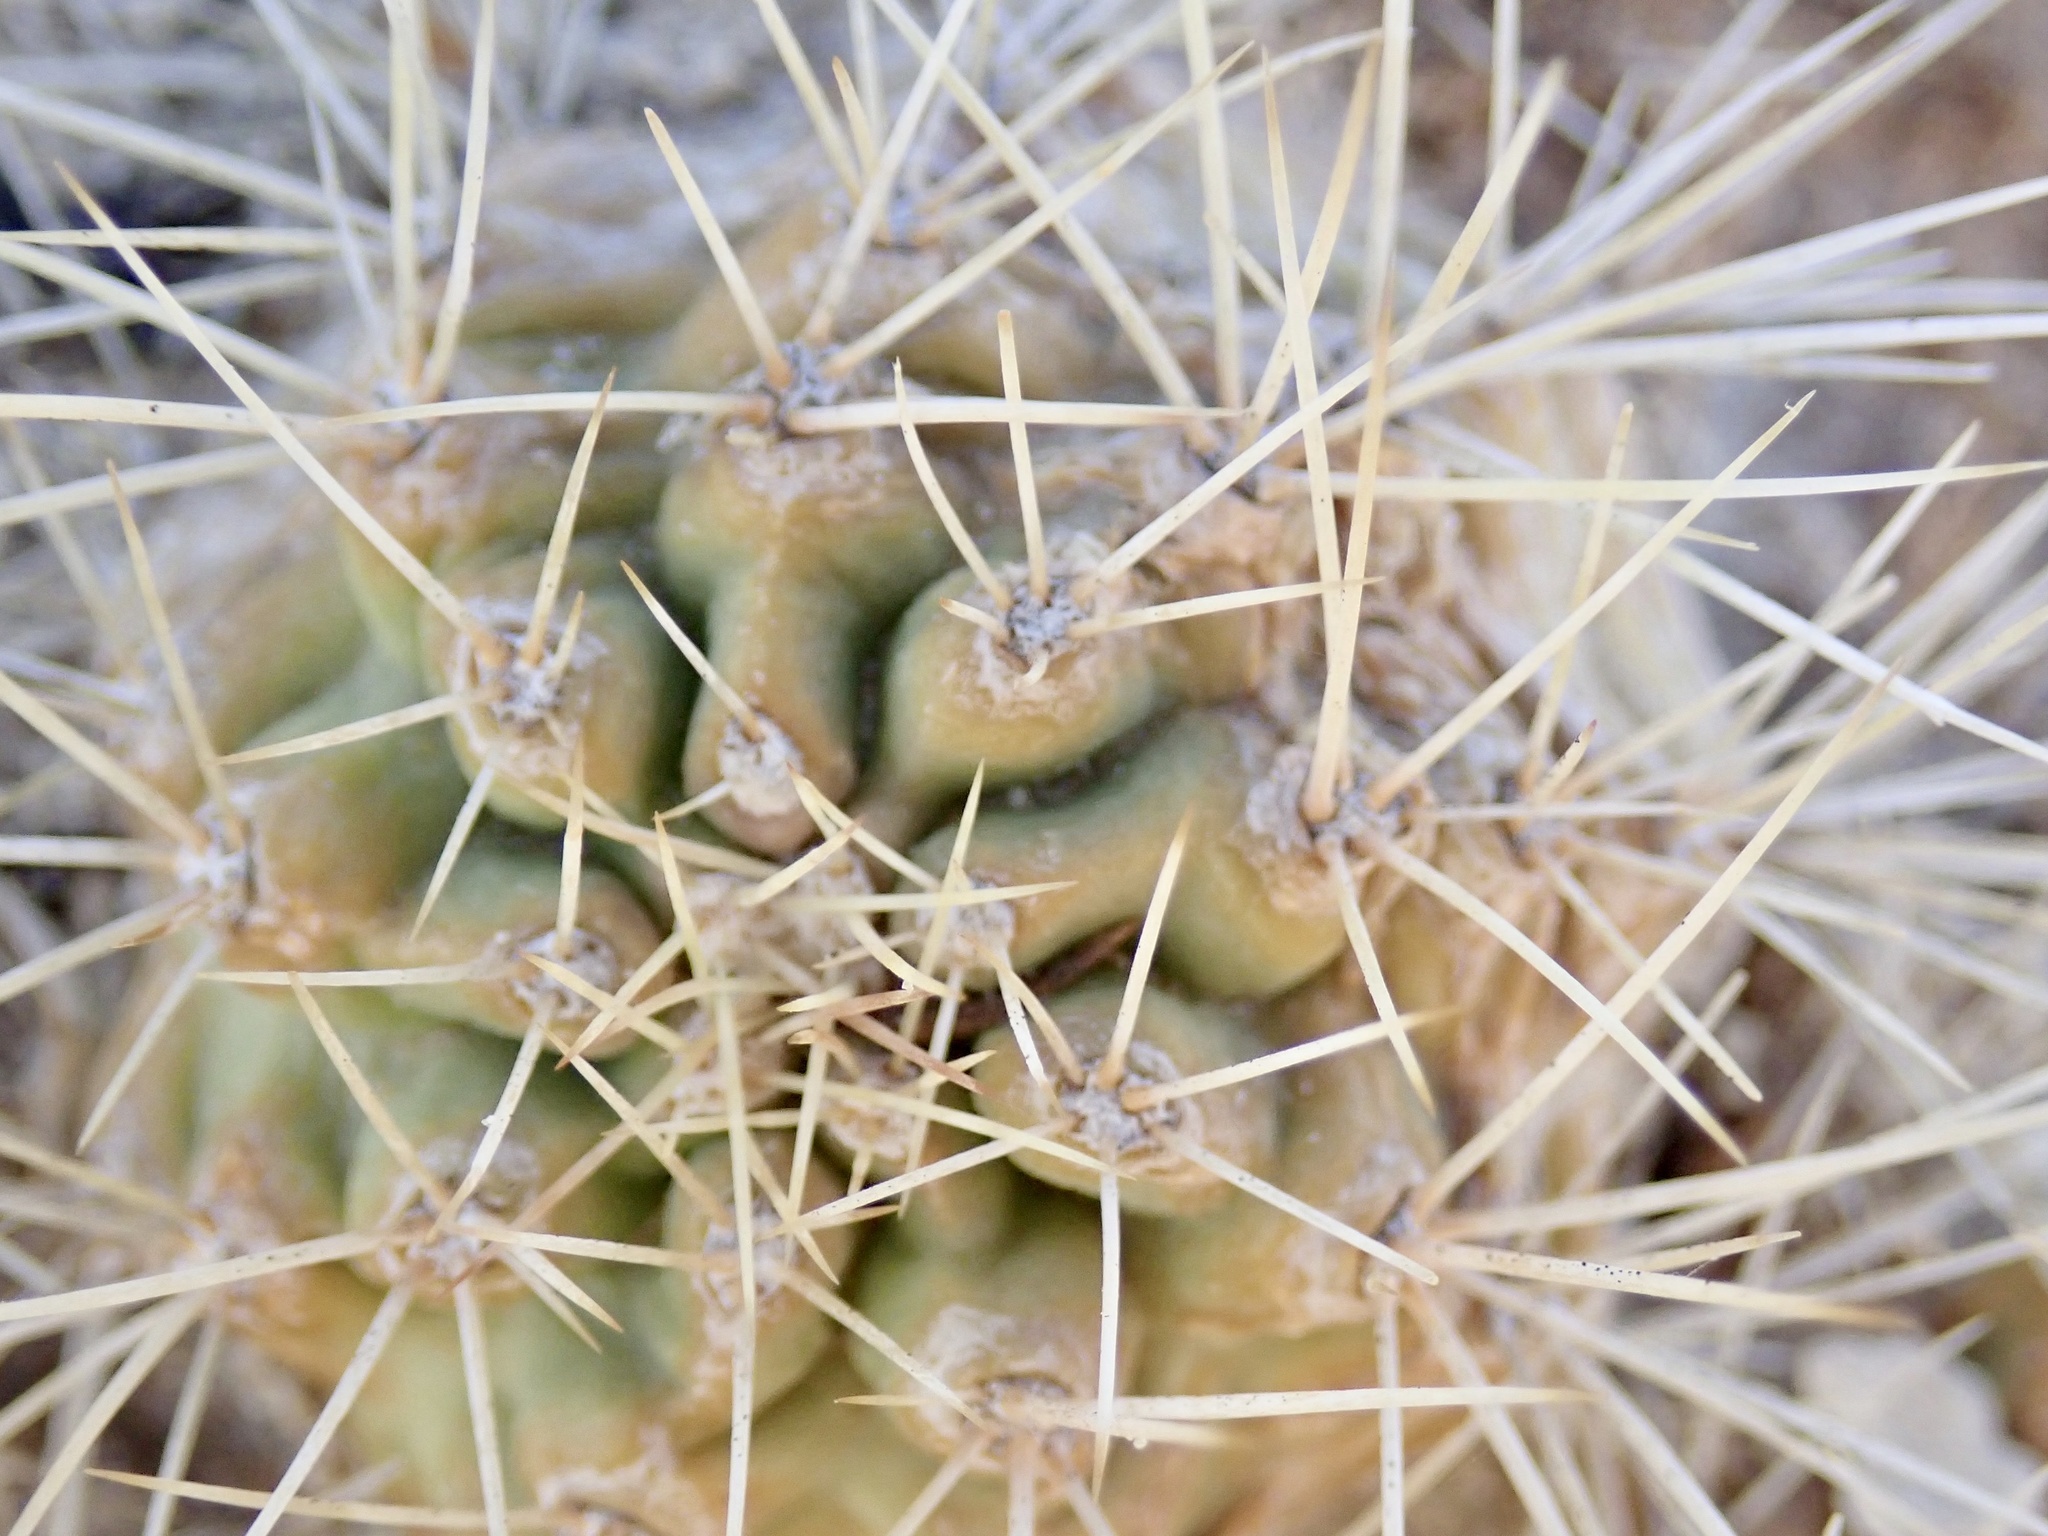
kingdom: Plantae
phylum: Tracheophyta
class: Magnoliopsida
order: Caryophyllales
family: Cactaceae
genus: Echinocereus
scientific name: Echinocereus triglochidiatus
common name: Claretcup hedgehog
